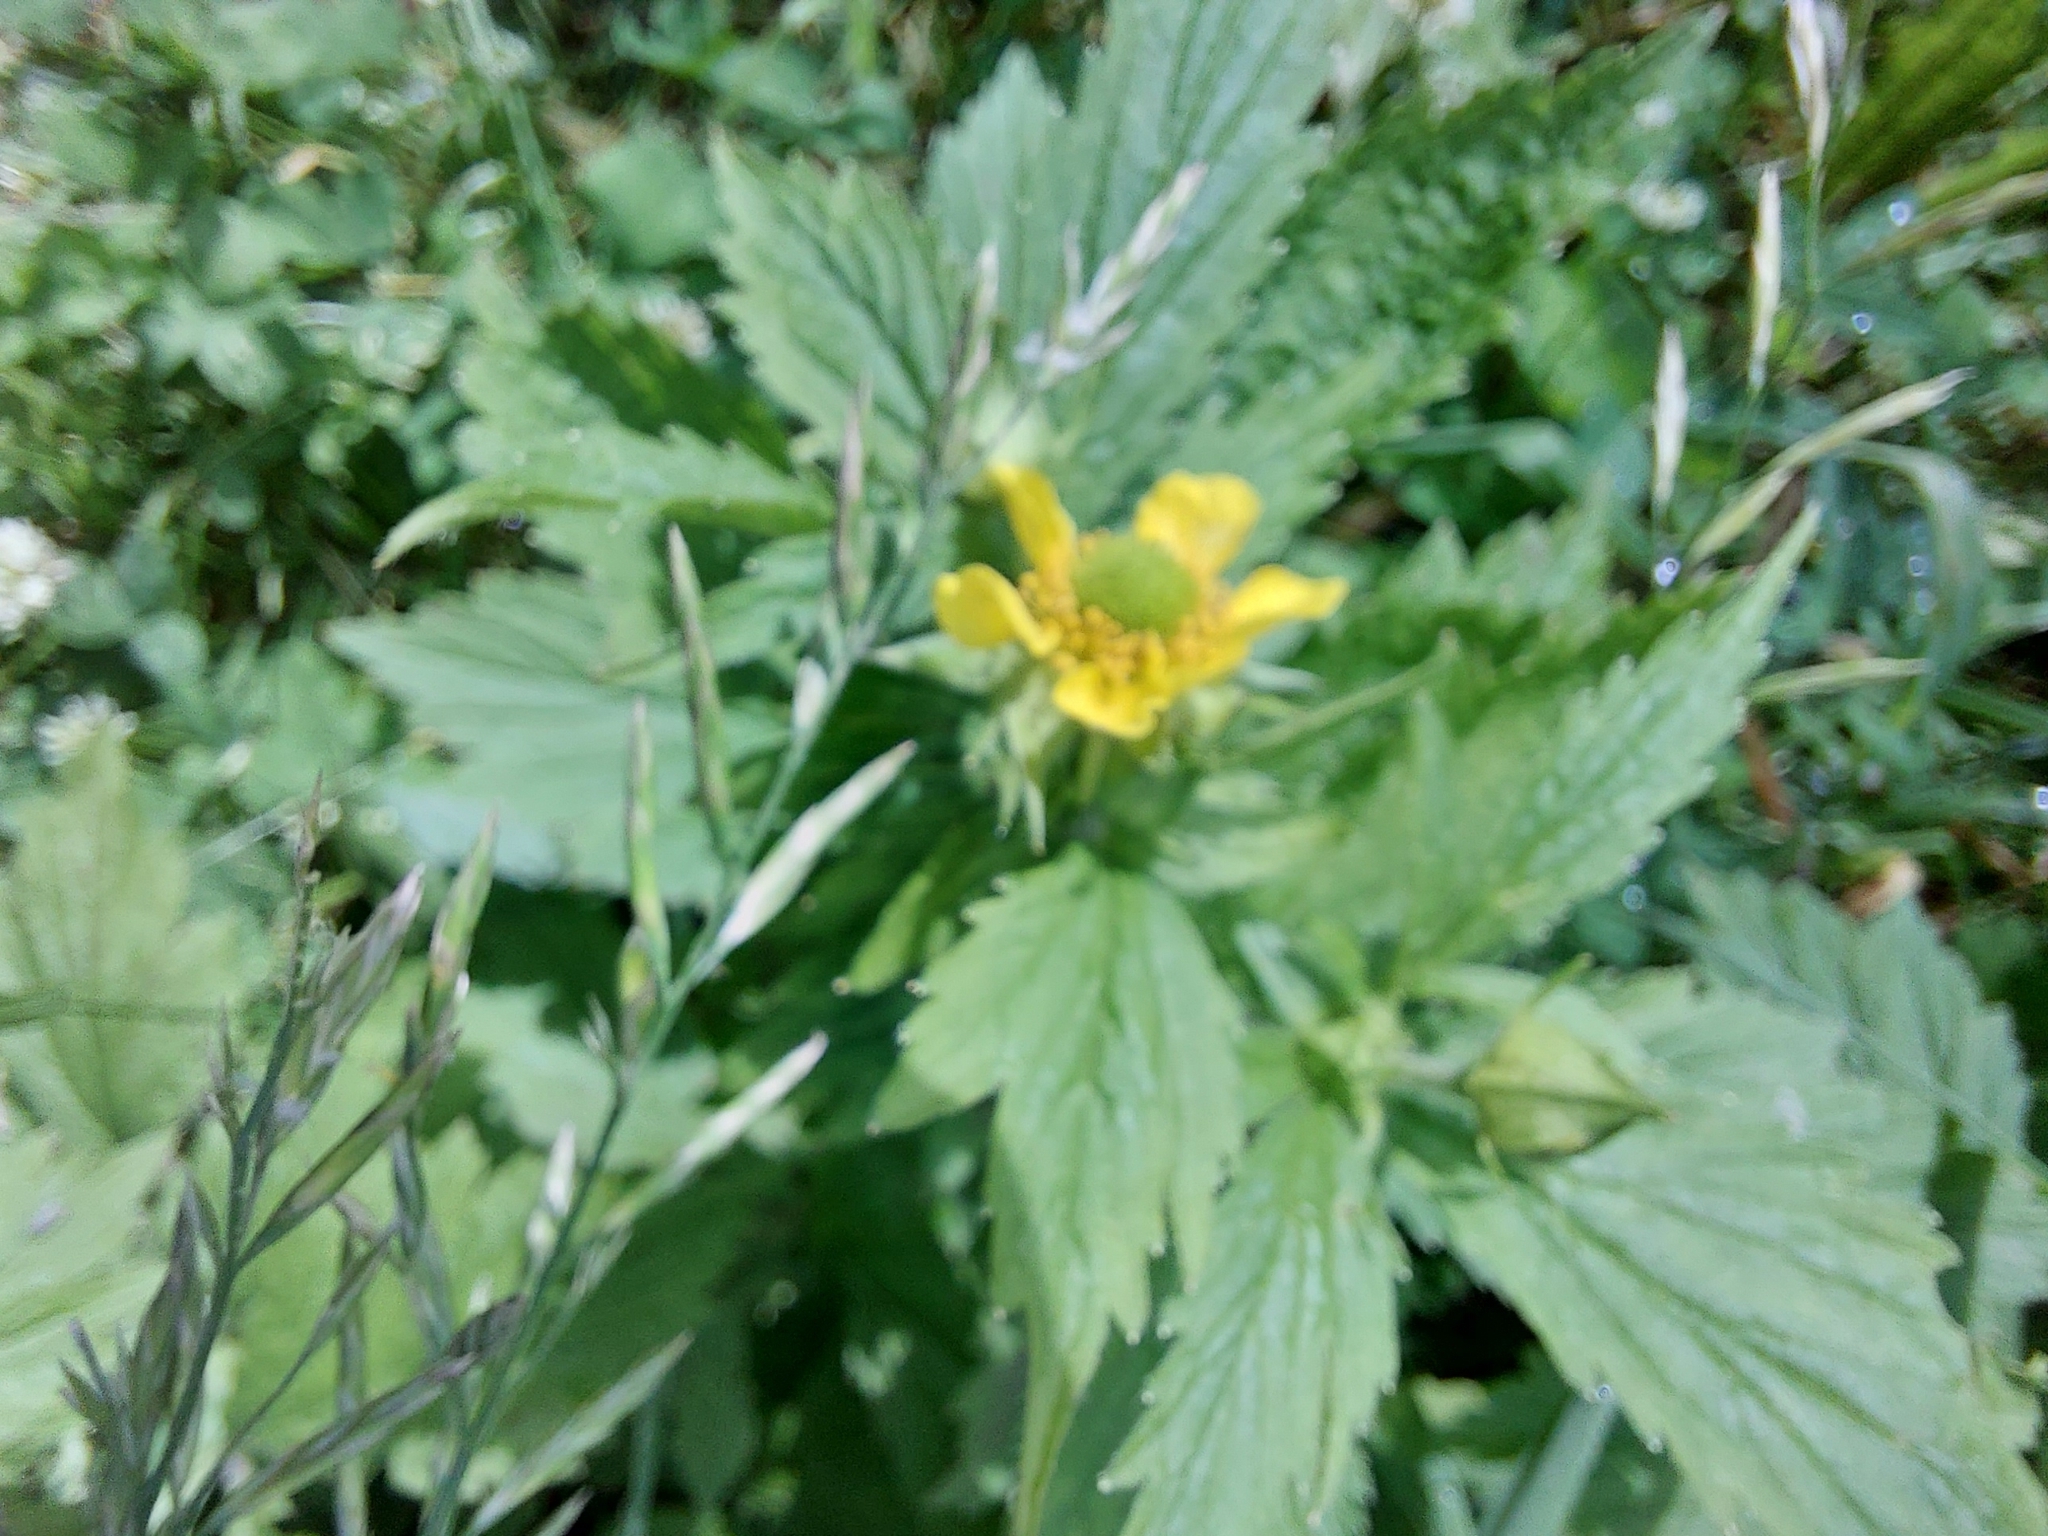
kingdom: Plantae
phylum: Tracheophyta
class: Magnoliopsida
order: Rosales
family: Rosaceae
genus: Geum
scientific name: Geum aleppicum
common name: Yellow avens
